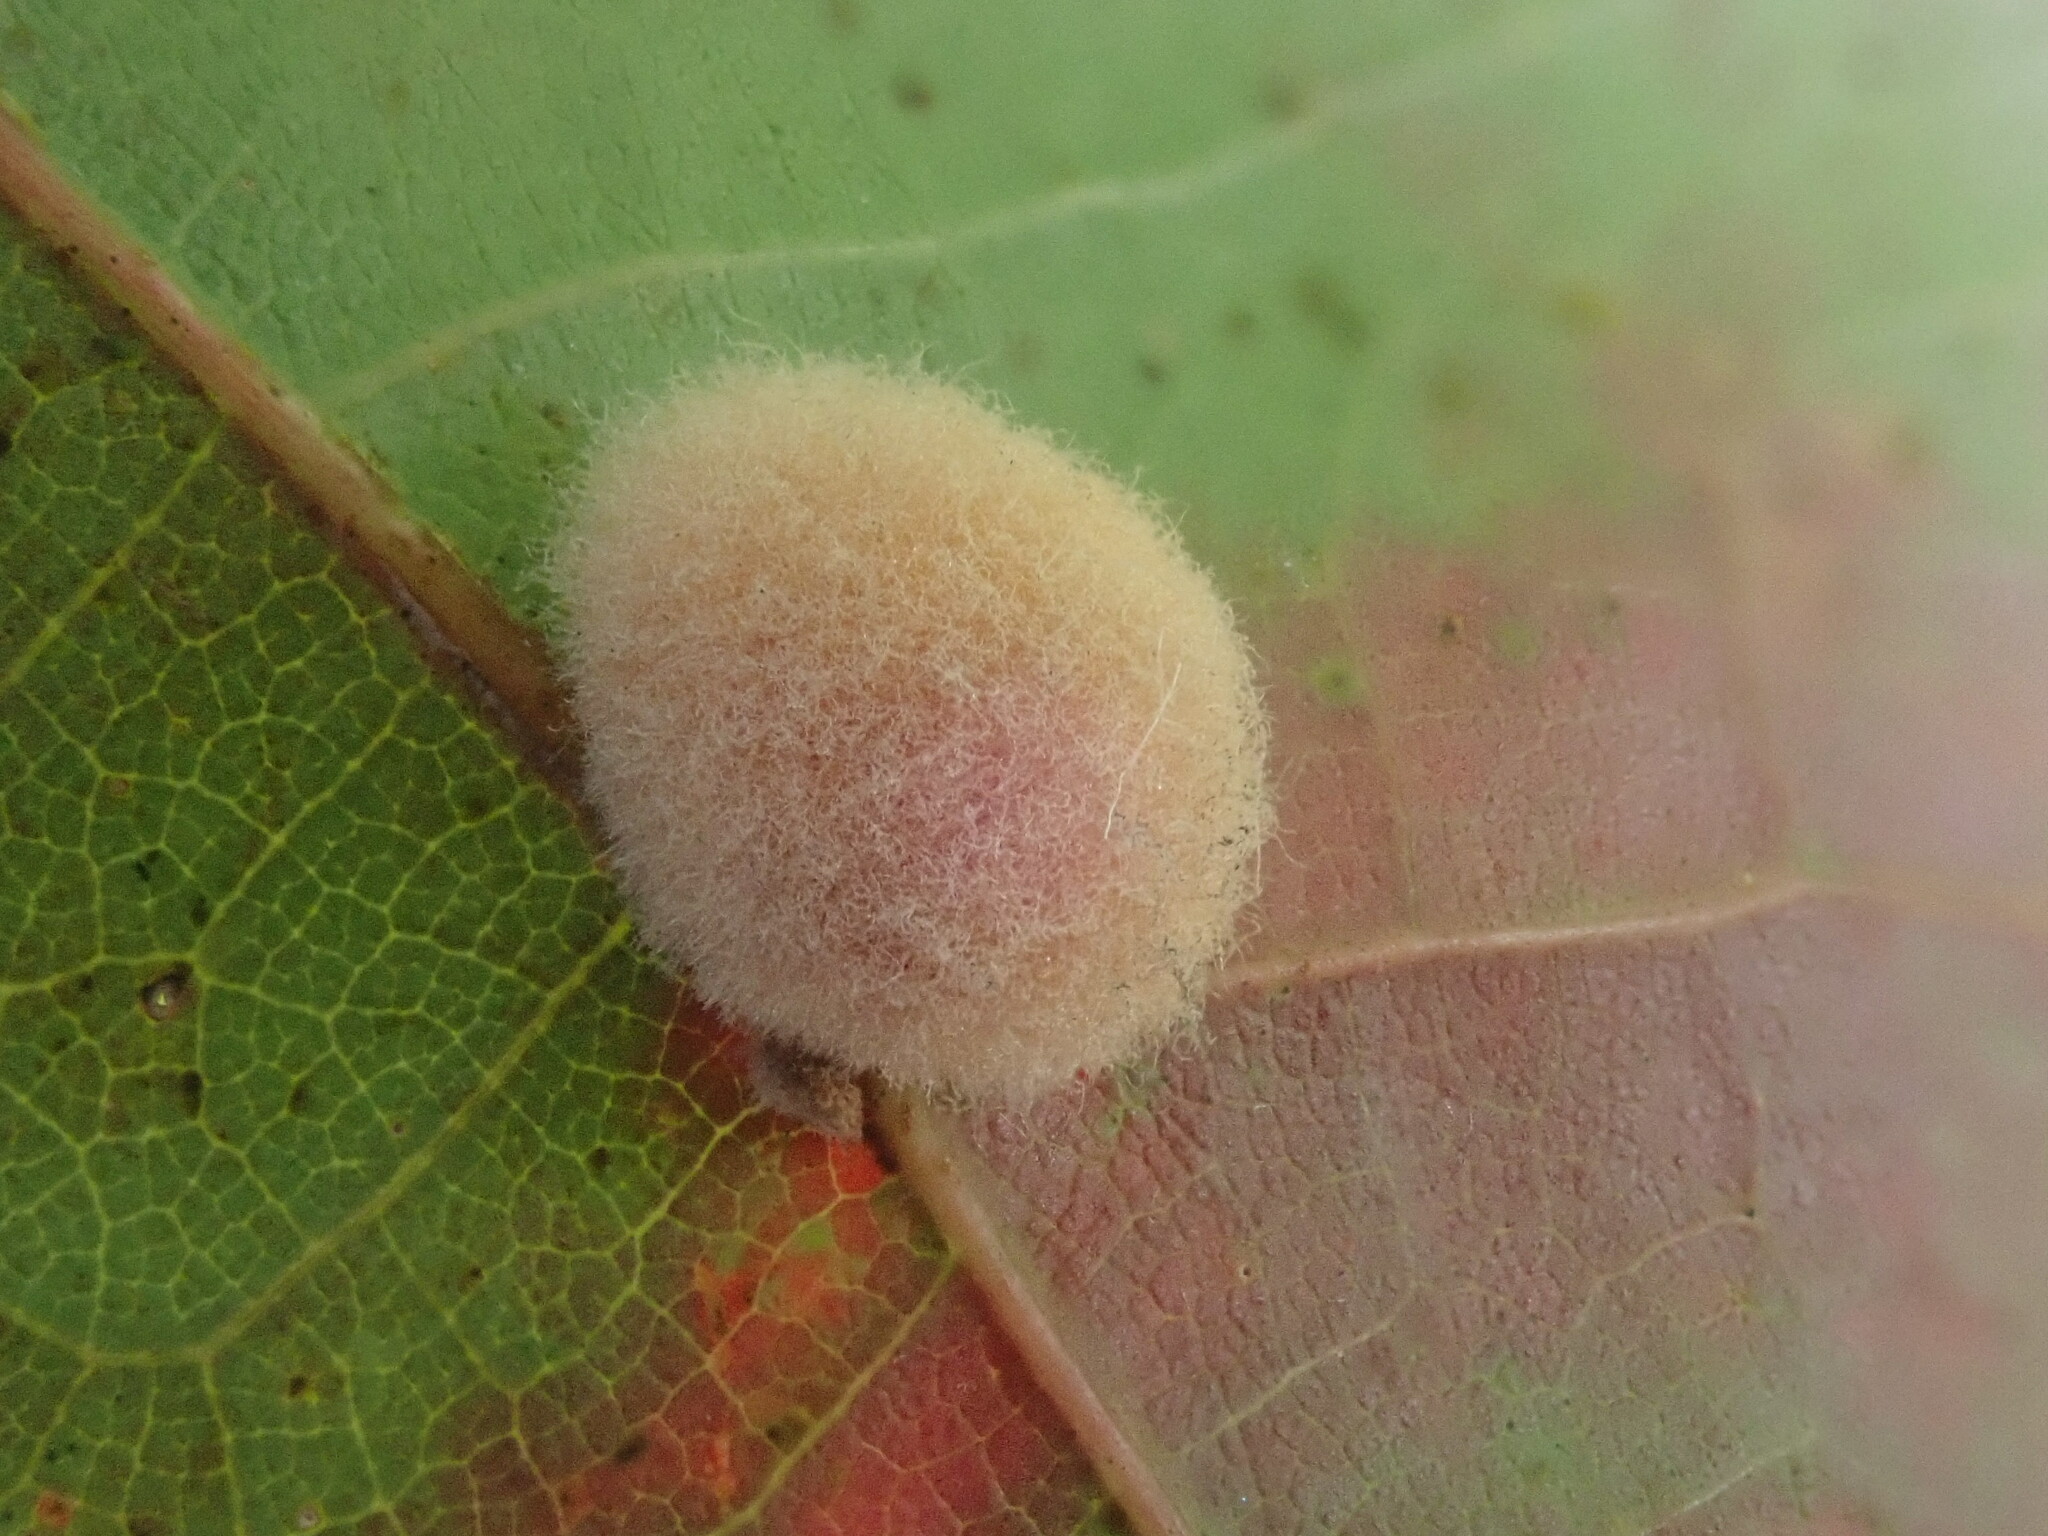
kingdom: Animalia
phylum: Arthropoda
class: Insecta
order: Hymenoptera
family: Cynipidae
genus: Callirhytis
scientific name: Callirhytis
